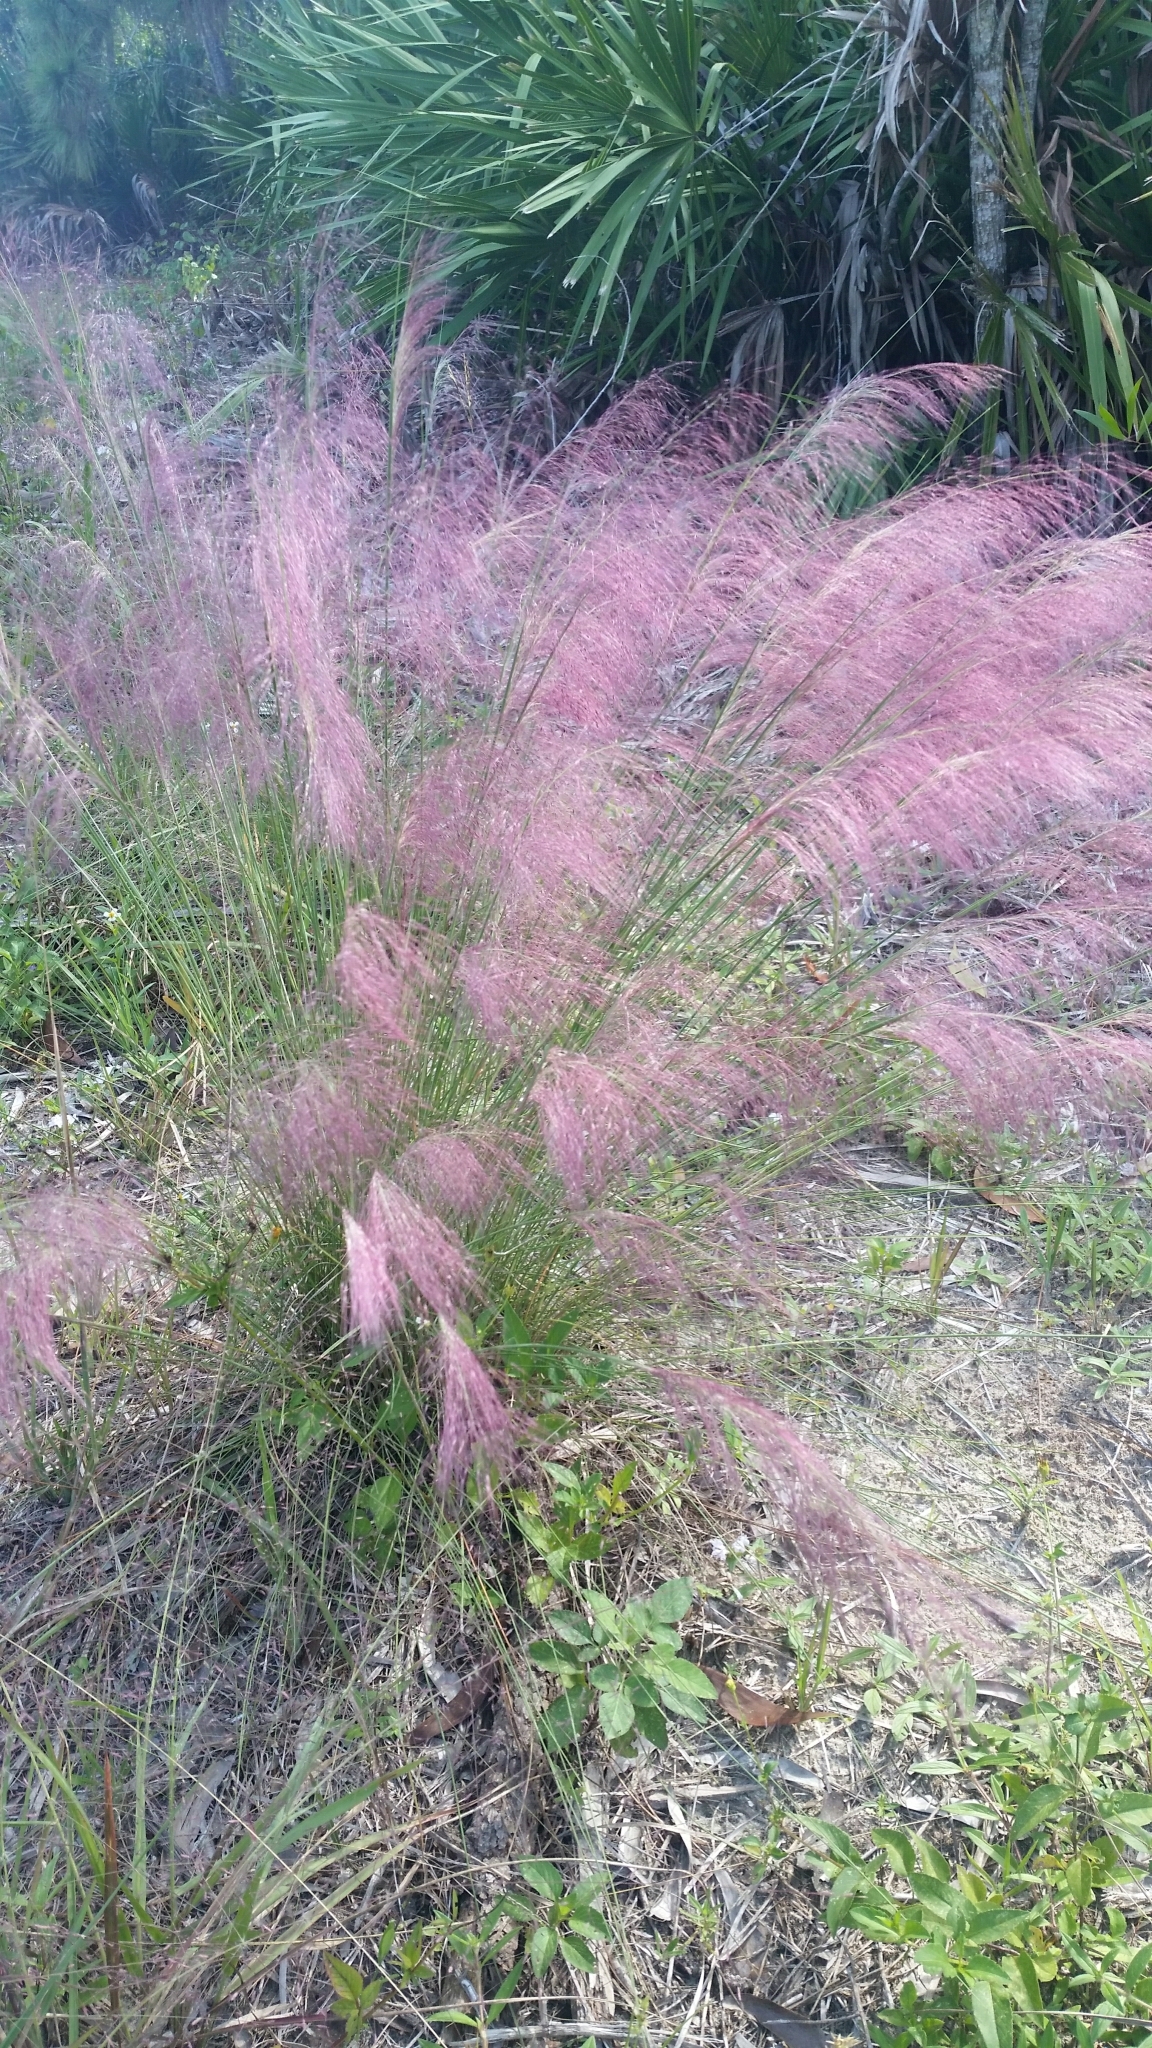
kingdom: Plantae
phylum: Tracheophyta
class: Liliopsida
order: Poales
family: Poaceae
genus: Muhlenbergia
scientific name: Muhlenbergia sericea
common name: Dune-hair grass
